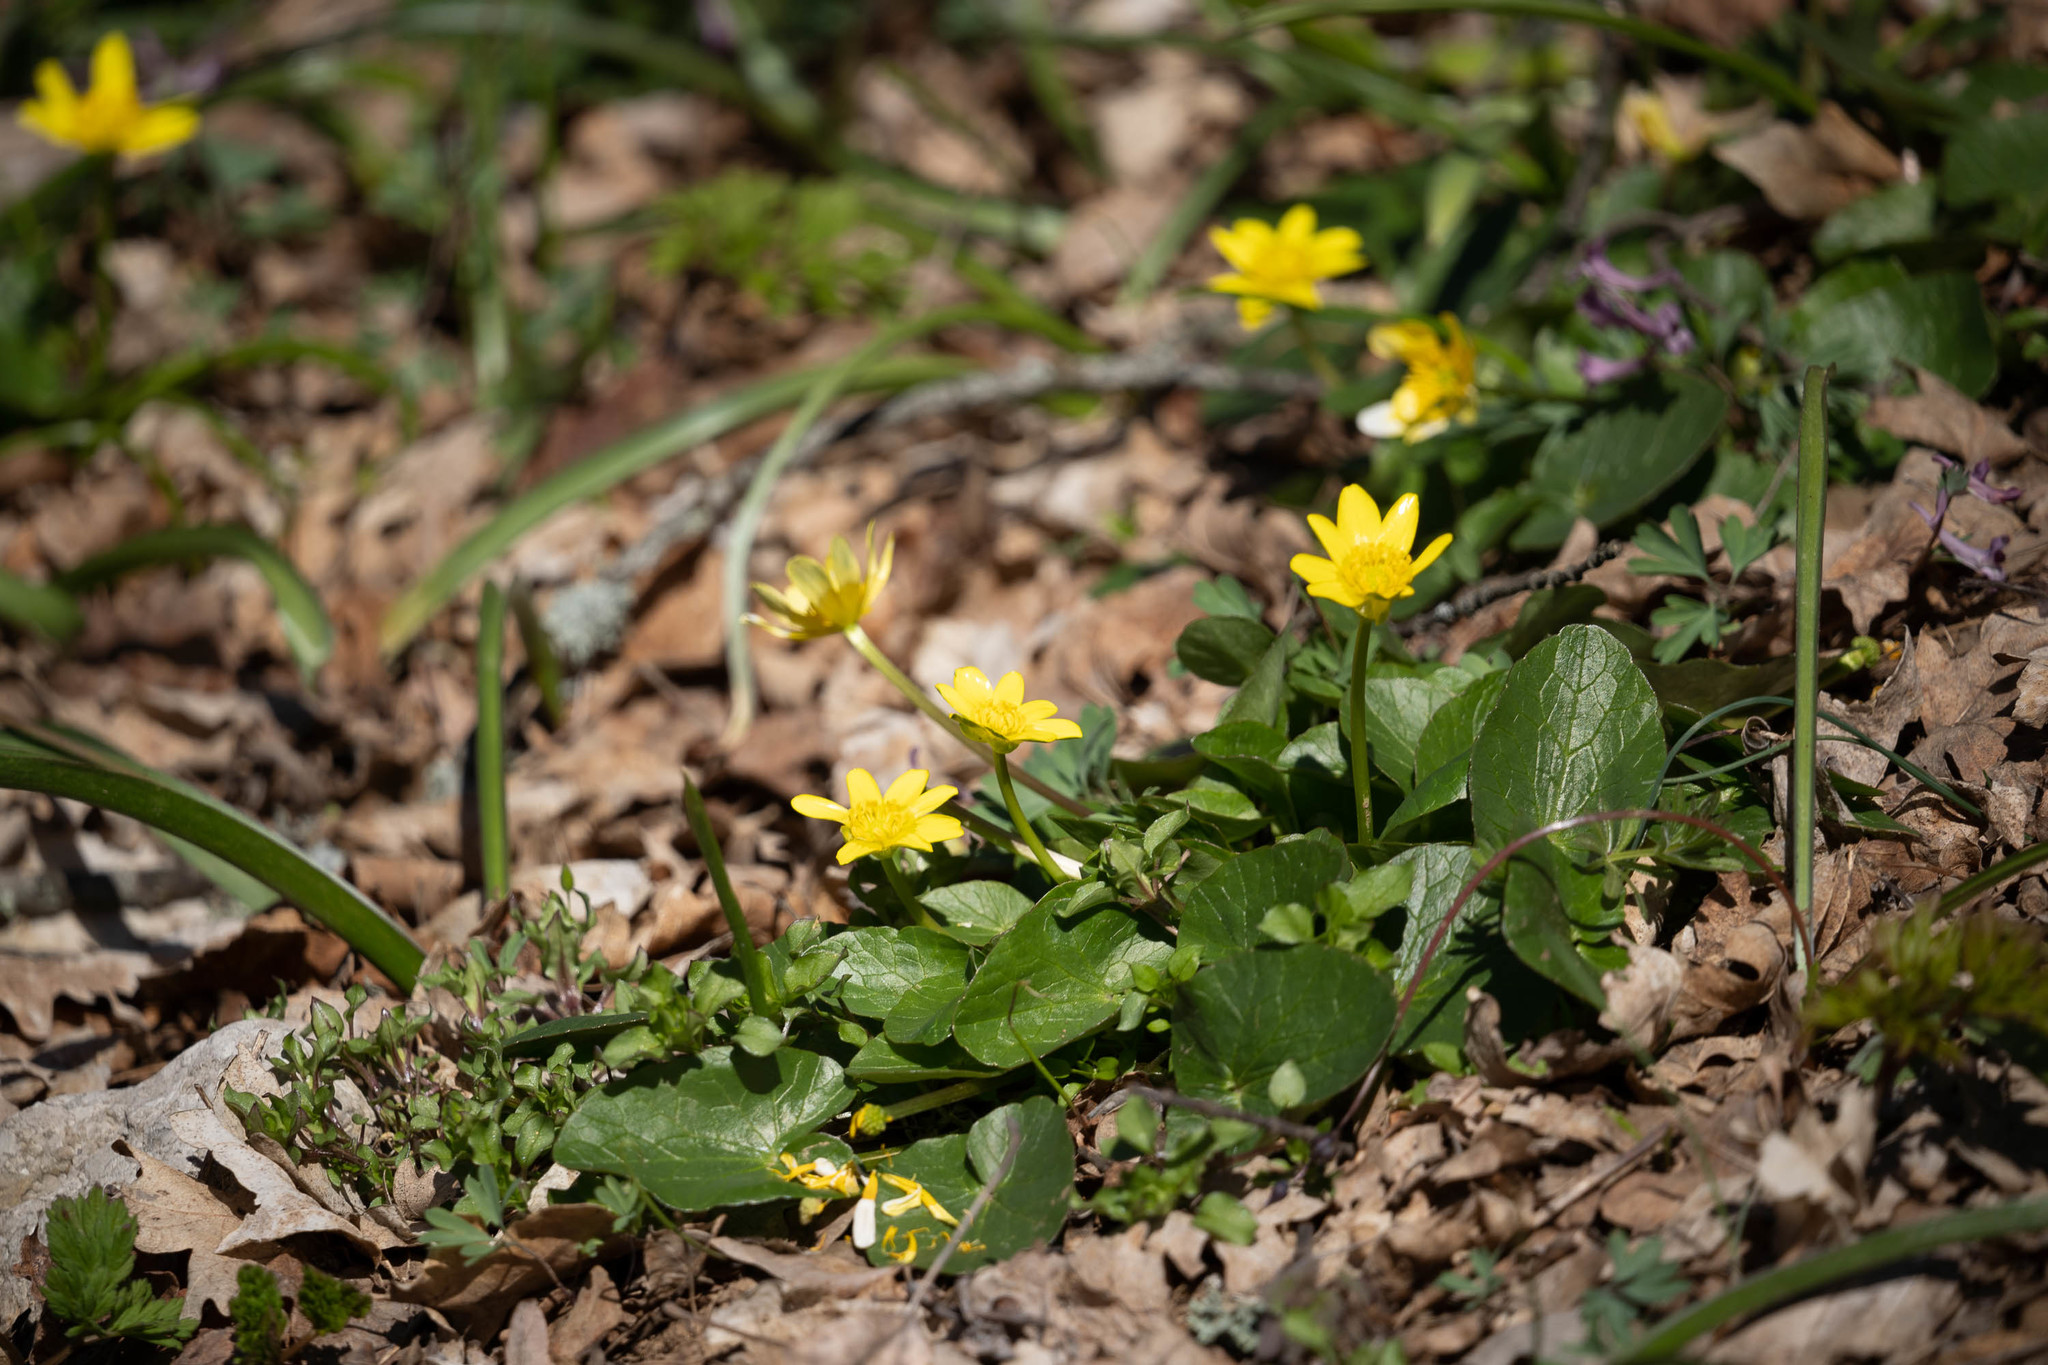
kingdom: Plantae
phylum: Tracheophyta
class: Magnoliopsida
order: Ranunculales
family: Ranunculaceae
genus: Ficaria
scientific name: Ficaria verna
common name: Lesser celandine
